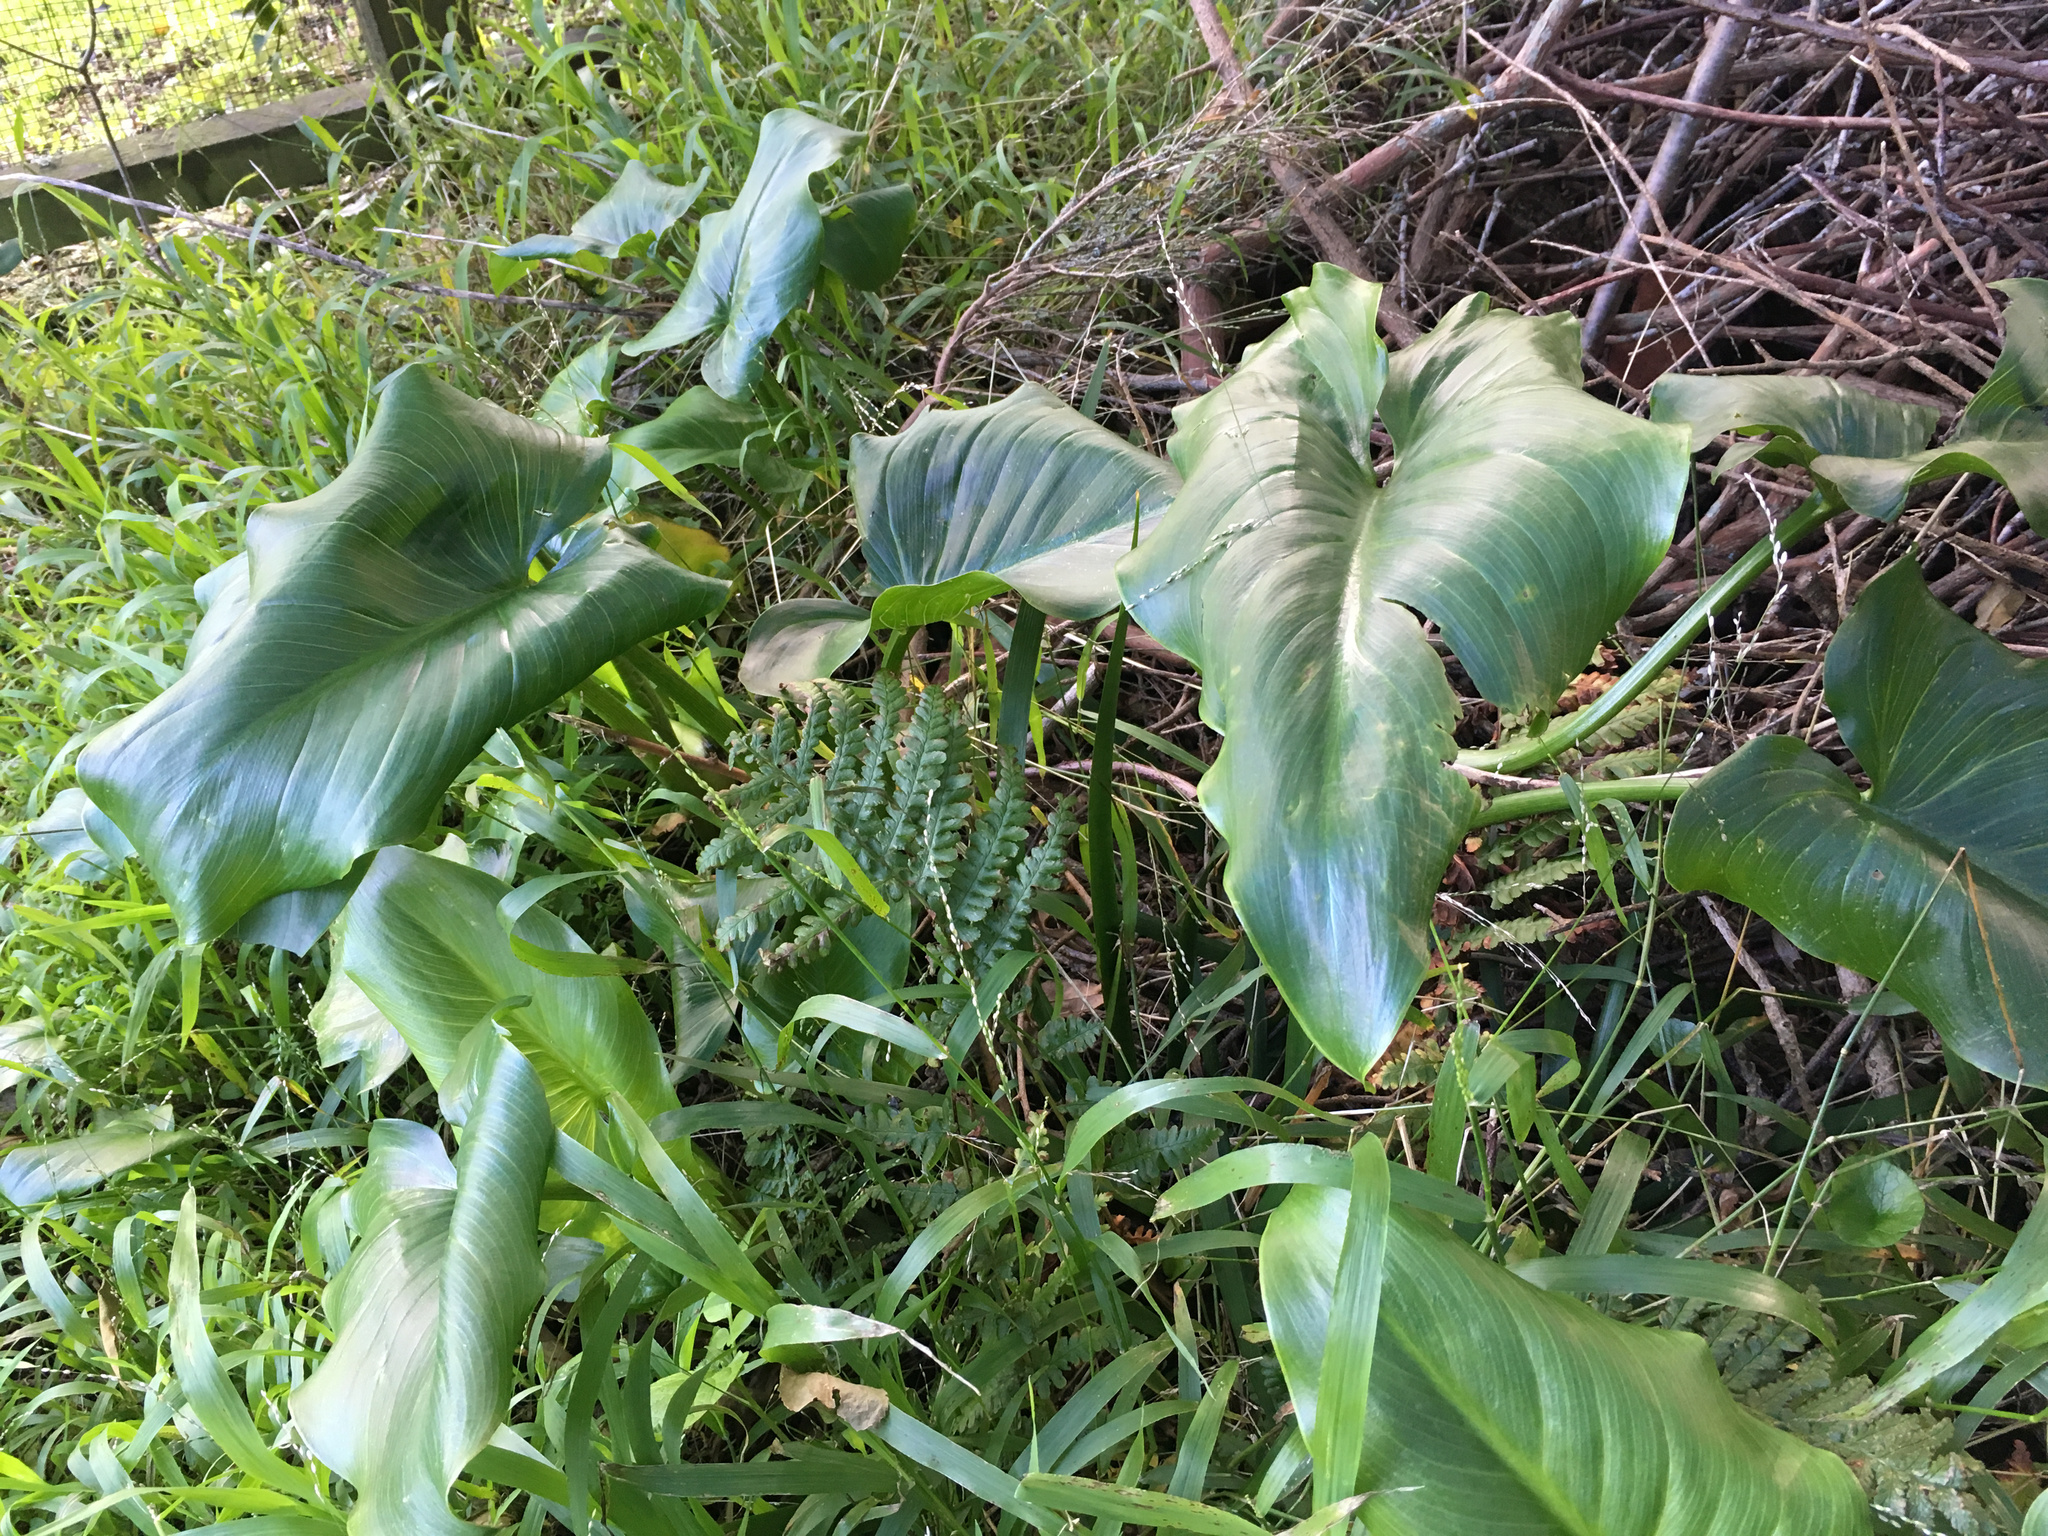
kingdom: Plantae
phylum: Tracheophyta
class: Liliopsida
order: Alismatales
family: Araceae
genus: Zantedeschia
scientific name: Zantedeschia aethiopica
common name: Altar-lily
